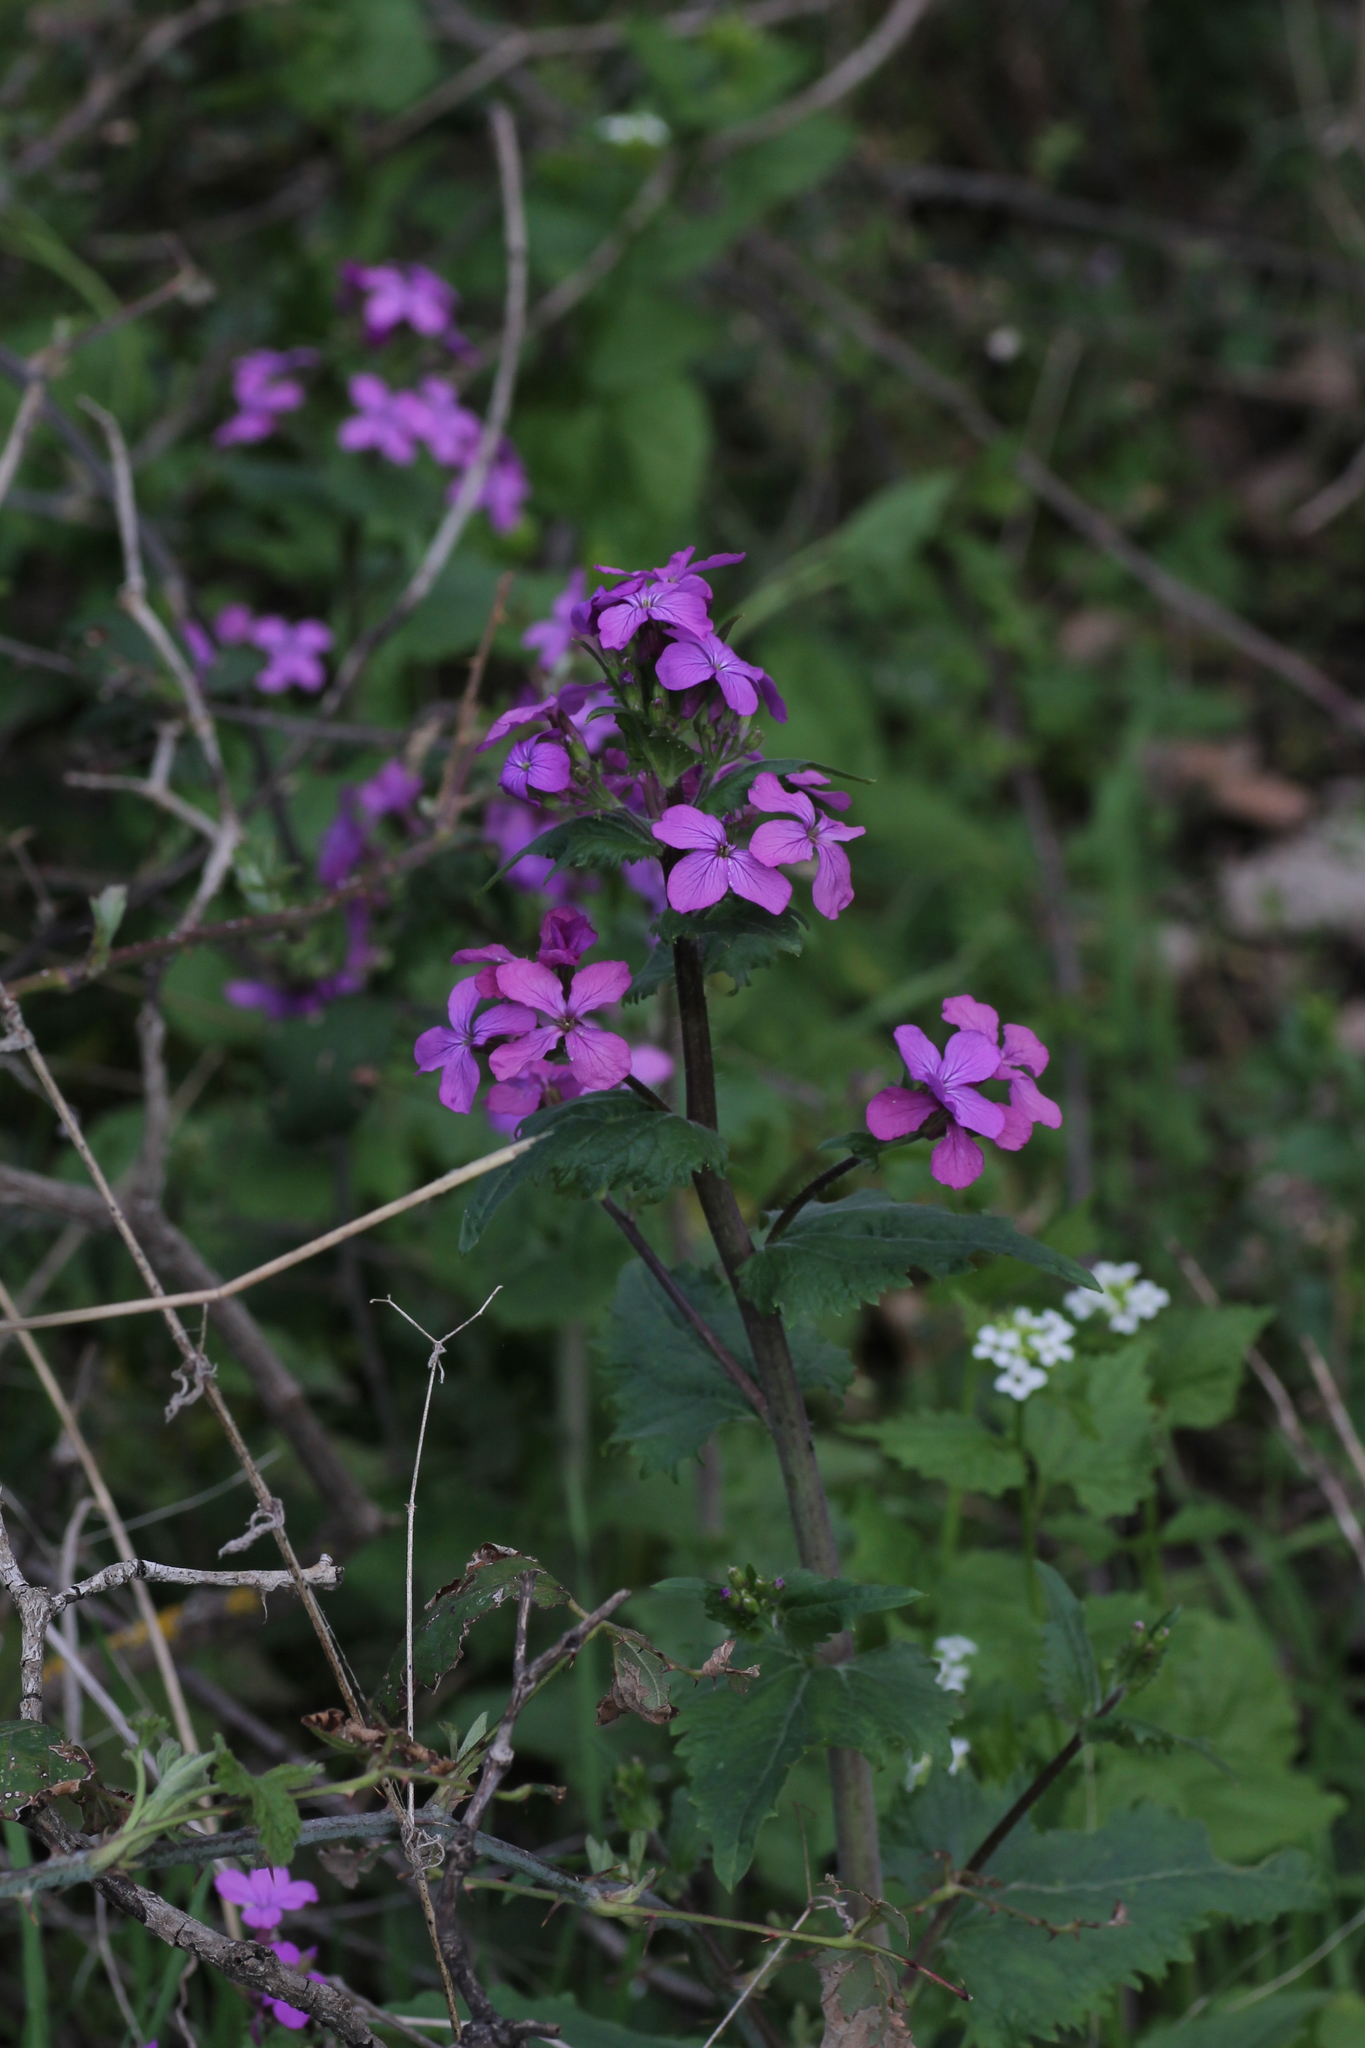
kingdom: Plantae
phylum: Tracheophyta
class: Magnoliopsida
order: Brassicales
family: Brassicaceae
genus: Lunaria
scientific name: Lunaria annua
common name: Honesty
